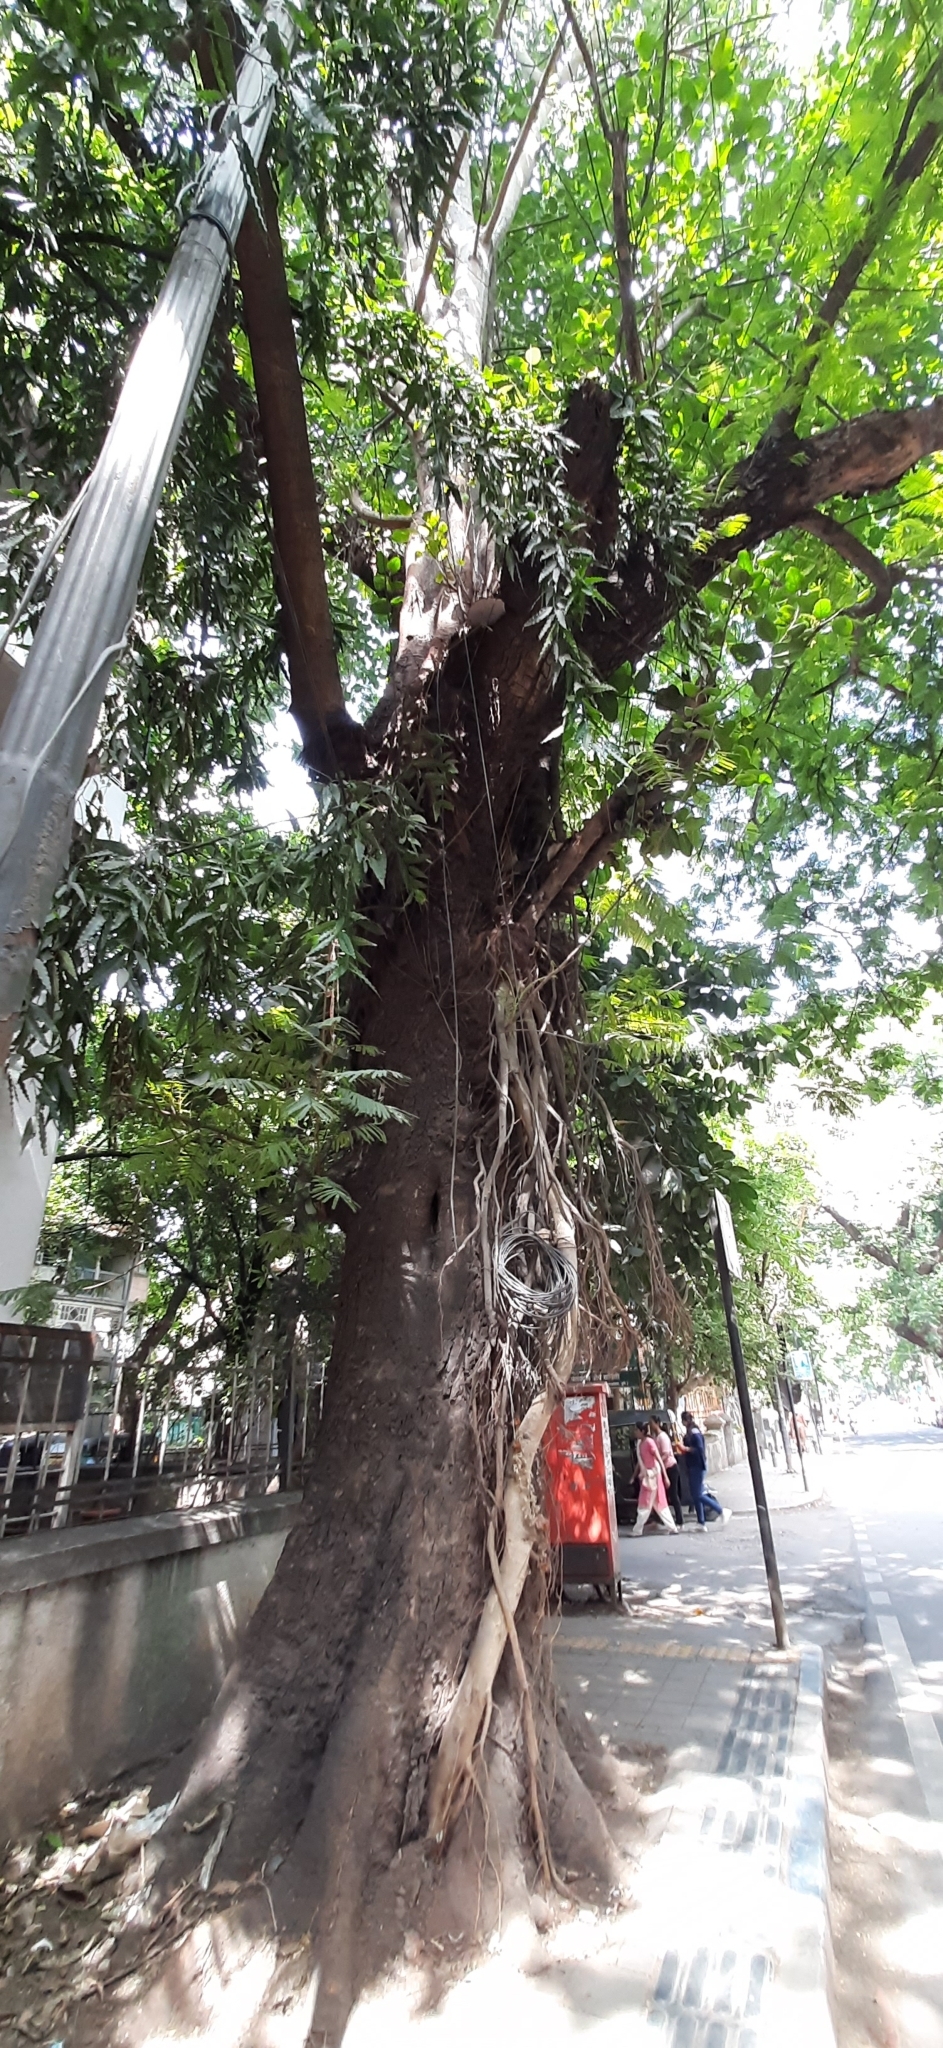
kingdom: Plantae
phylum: Tracheophyta
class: Magnoliopsida
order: Rosales
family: Moraceae
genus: Ficus
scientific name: Ficus benghalensis
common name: Indian banyan
